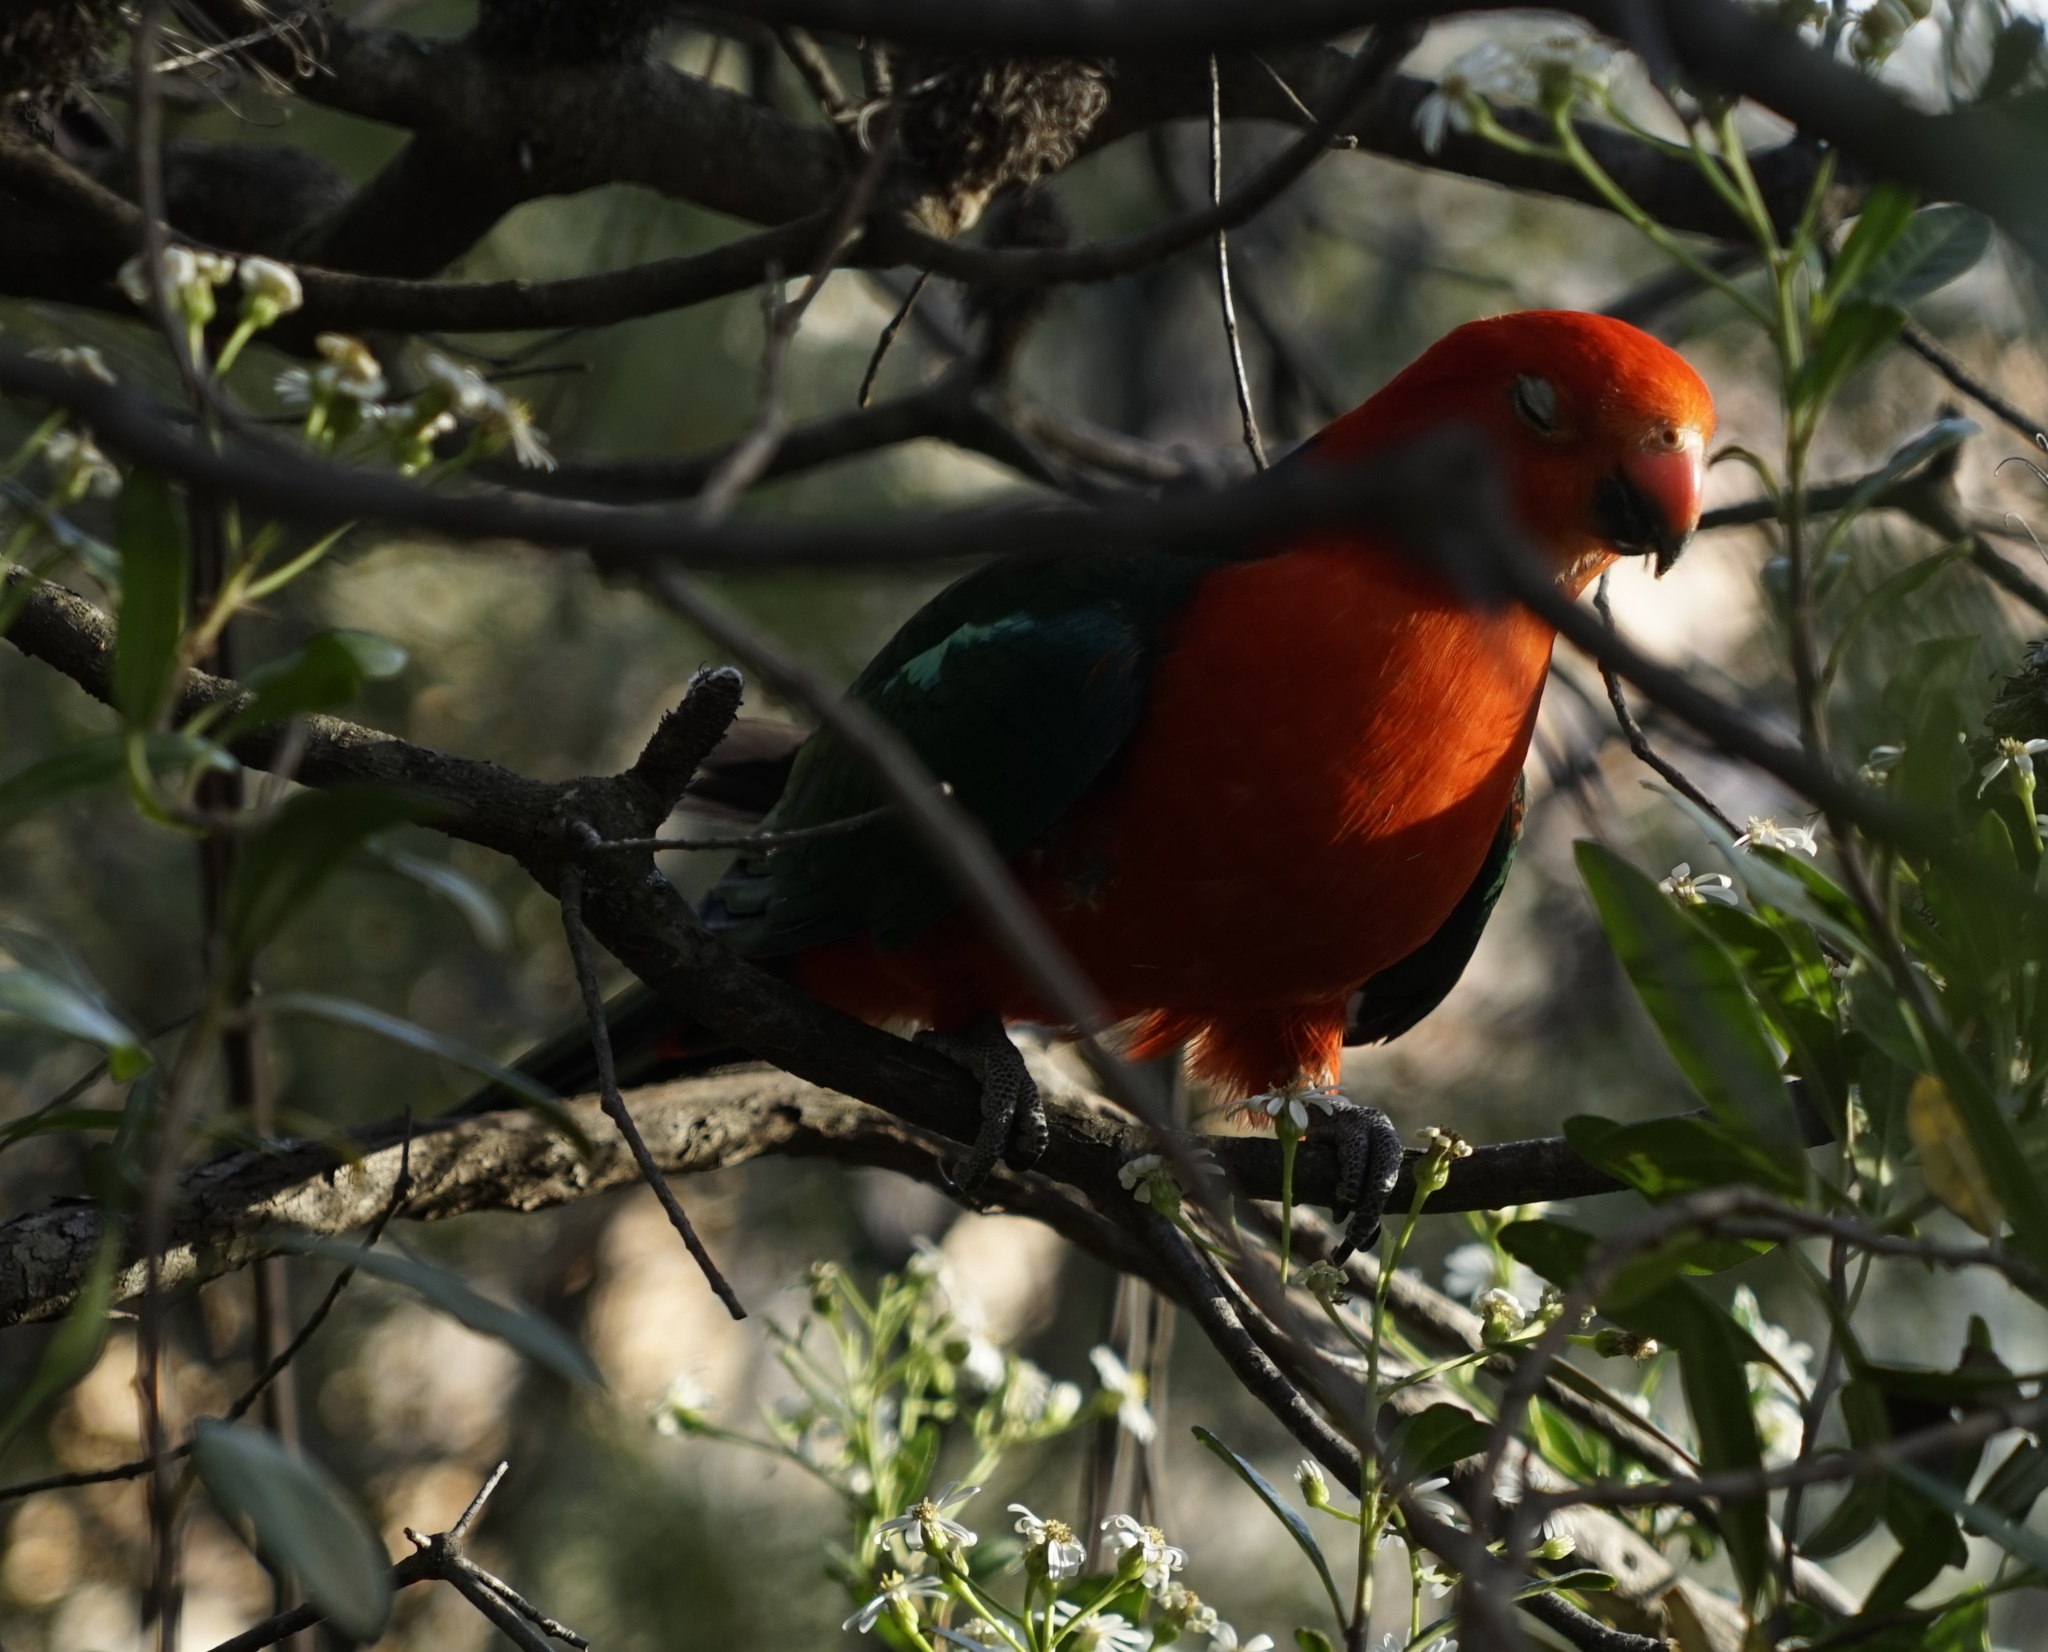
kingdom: Animalia
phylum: Chordata
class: Aves
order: Psittaciformes
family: Psittacidae
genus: Alisterus
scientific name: Alisterus scapularis
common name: Australian king parrot
